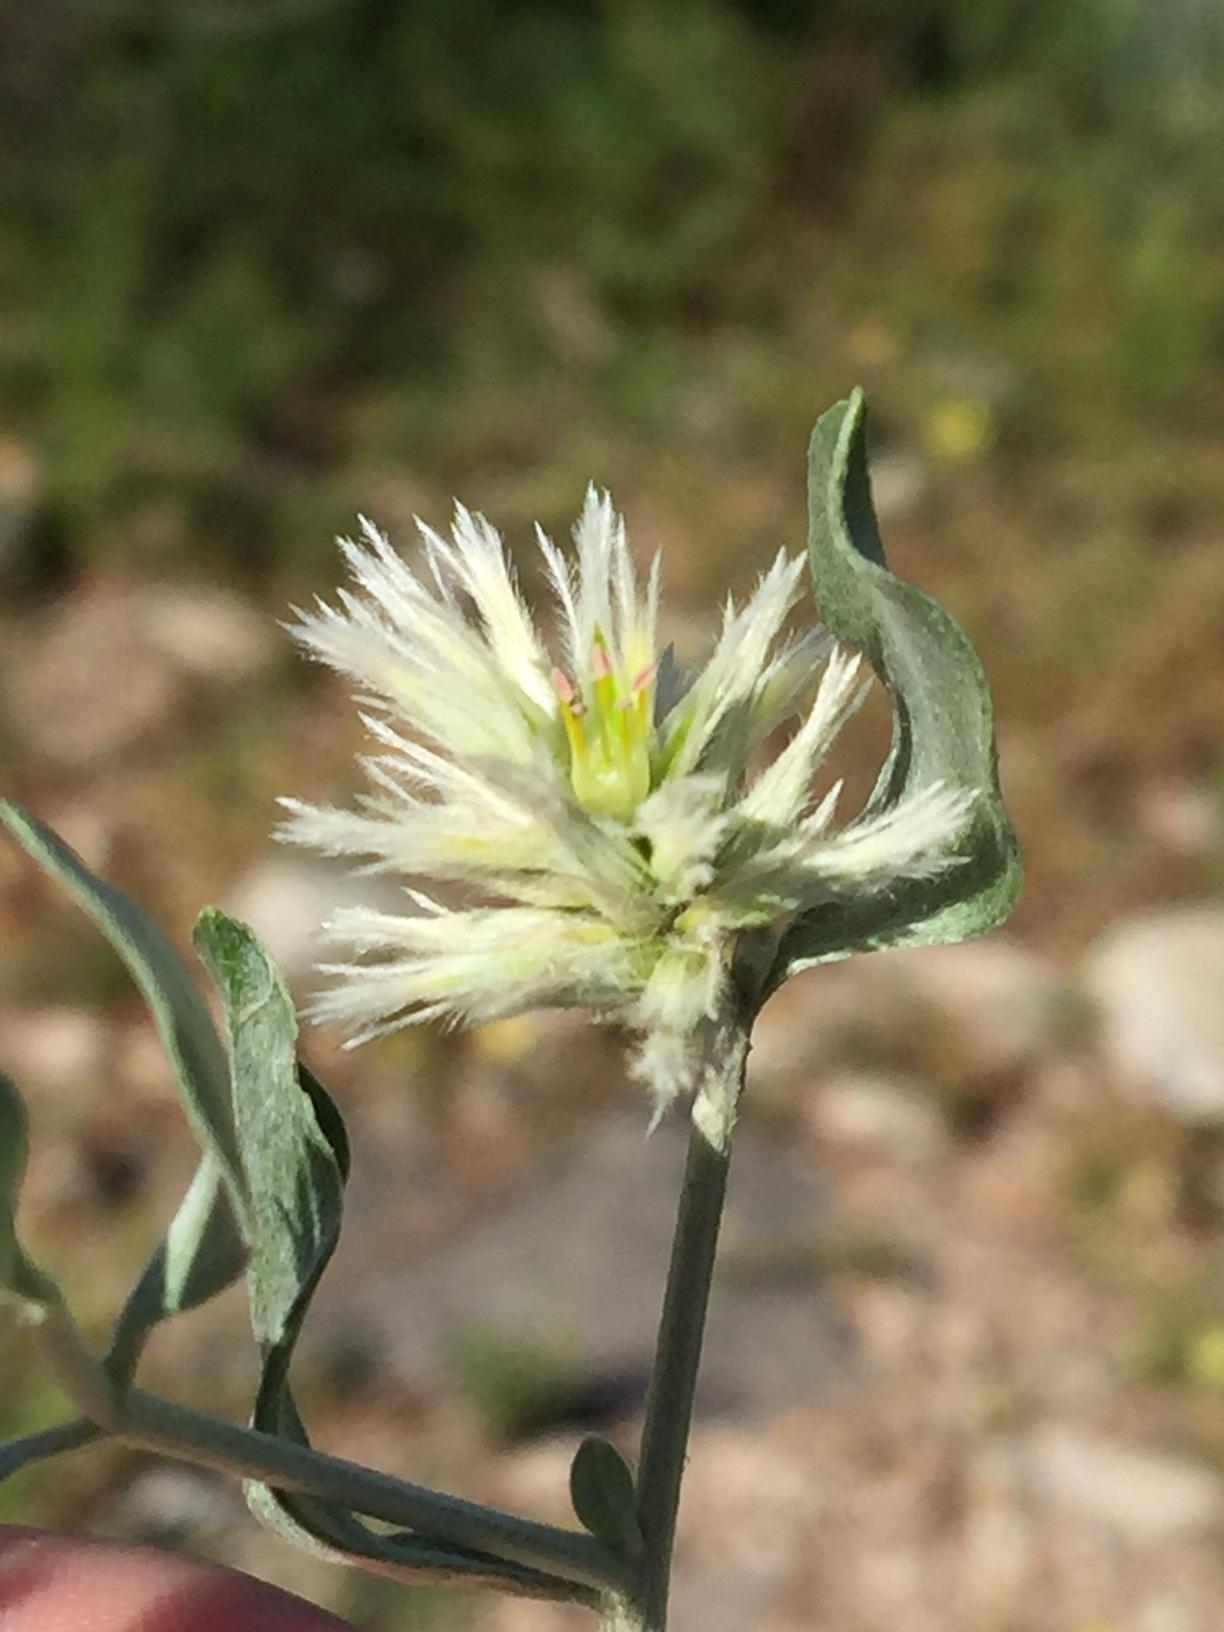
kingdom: Plantae
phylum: Tracheophyta
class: Magnoliopsida
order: Caryophyllales
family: Amaranthaceae
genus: Leucosphaera
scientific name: Leucosphaera bainesii
